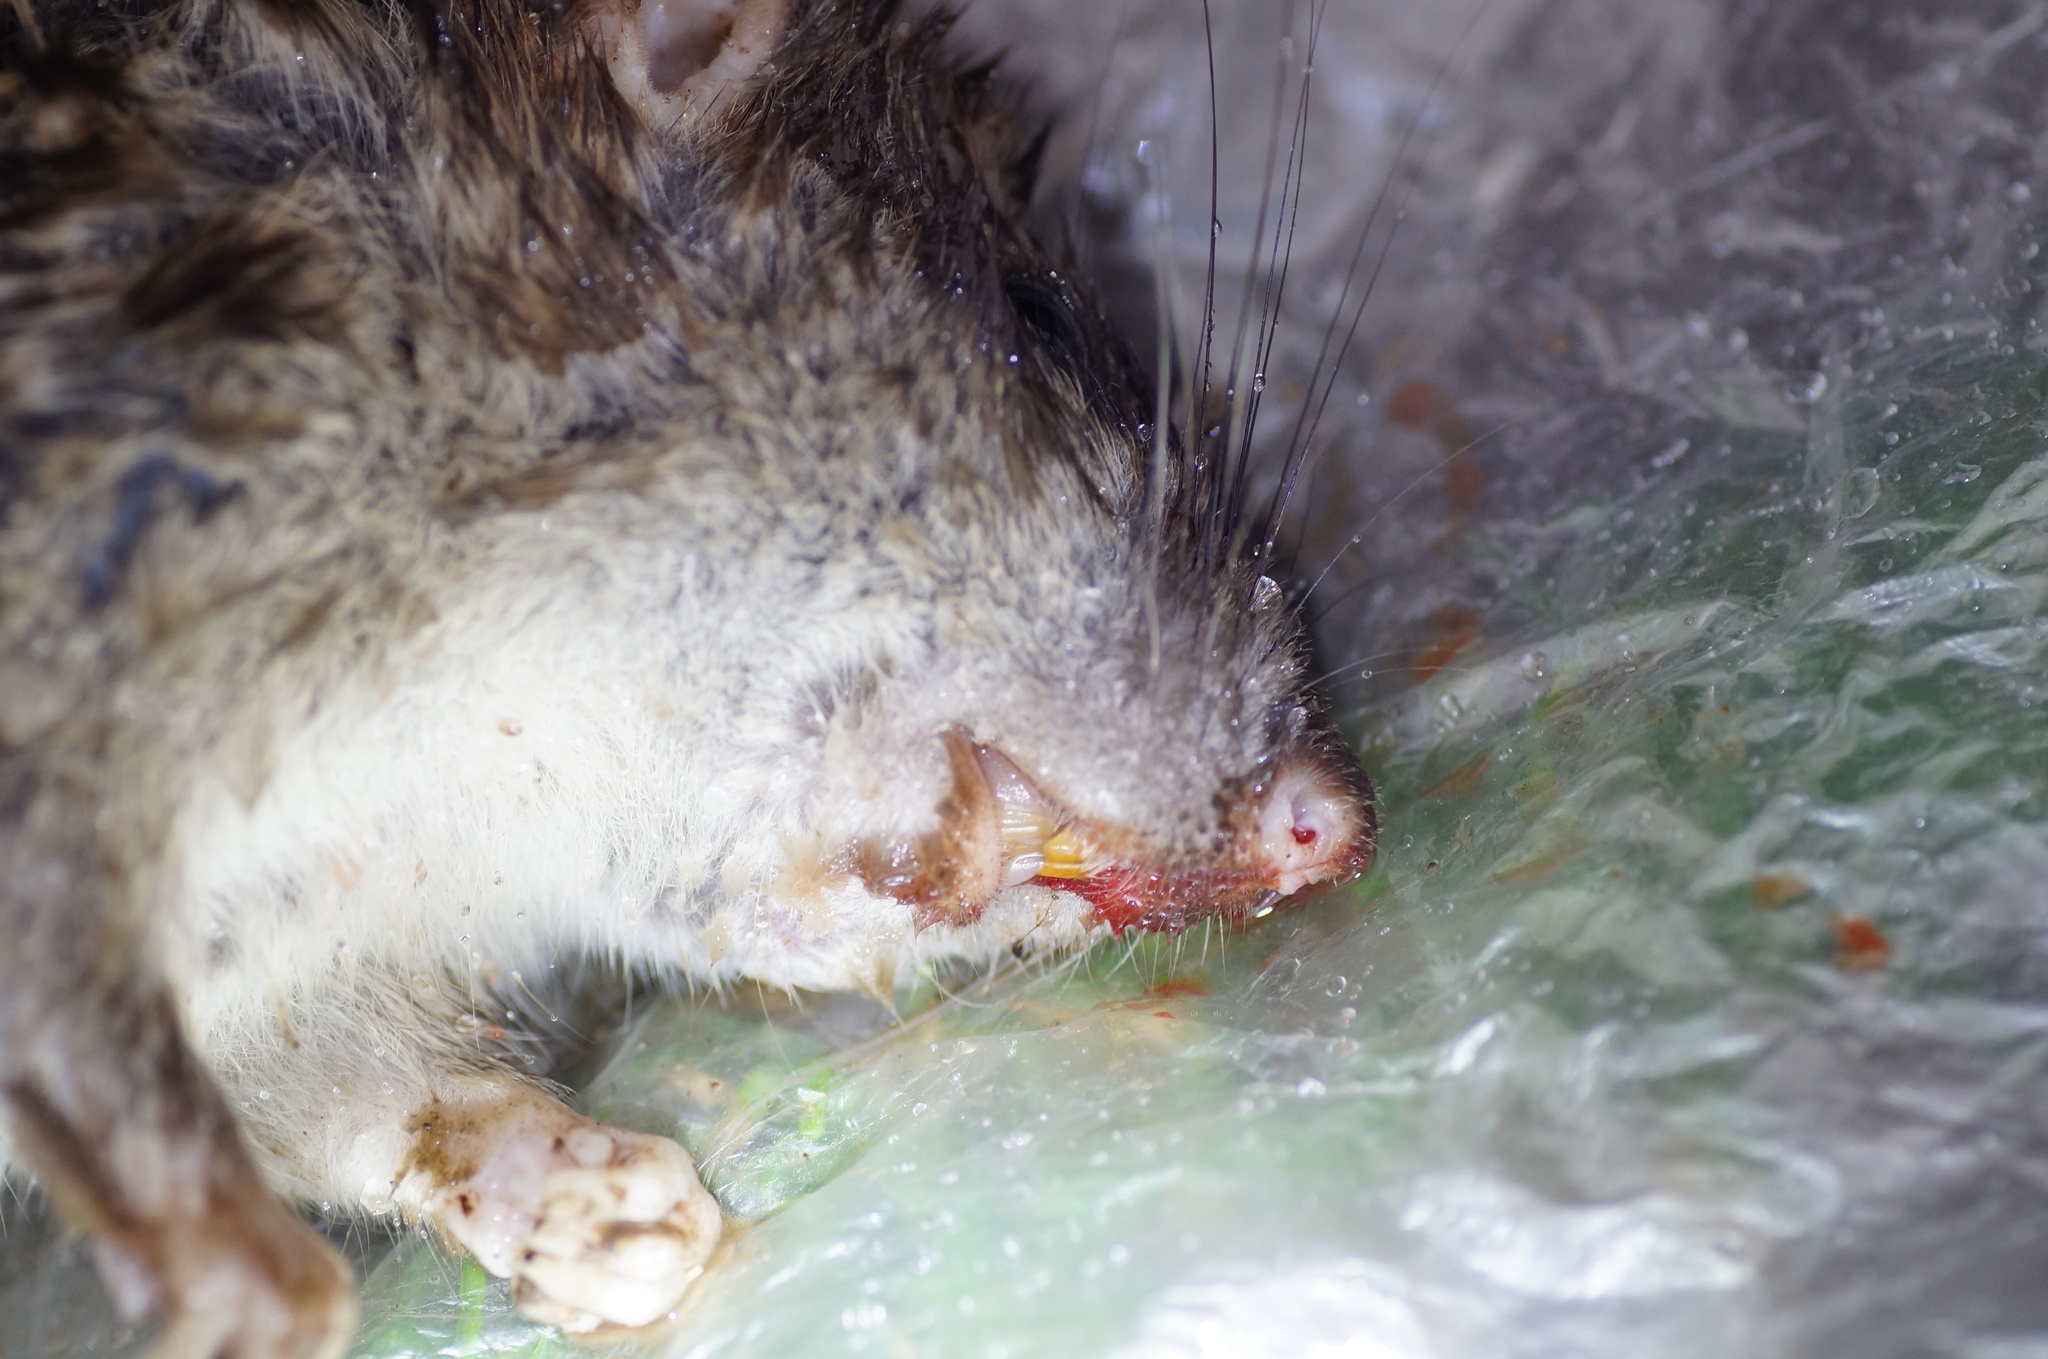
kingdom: Animalia
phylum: Chordata
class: Mammalia
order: Rodentia
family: Muridae
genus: Rattus
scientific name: Rattus norvegicus
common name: Brown rat
